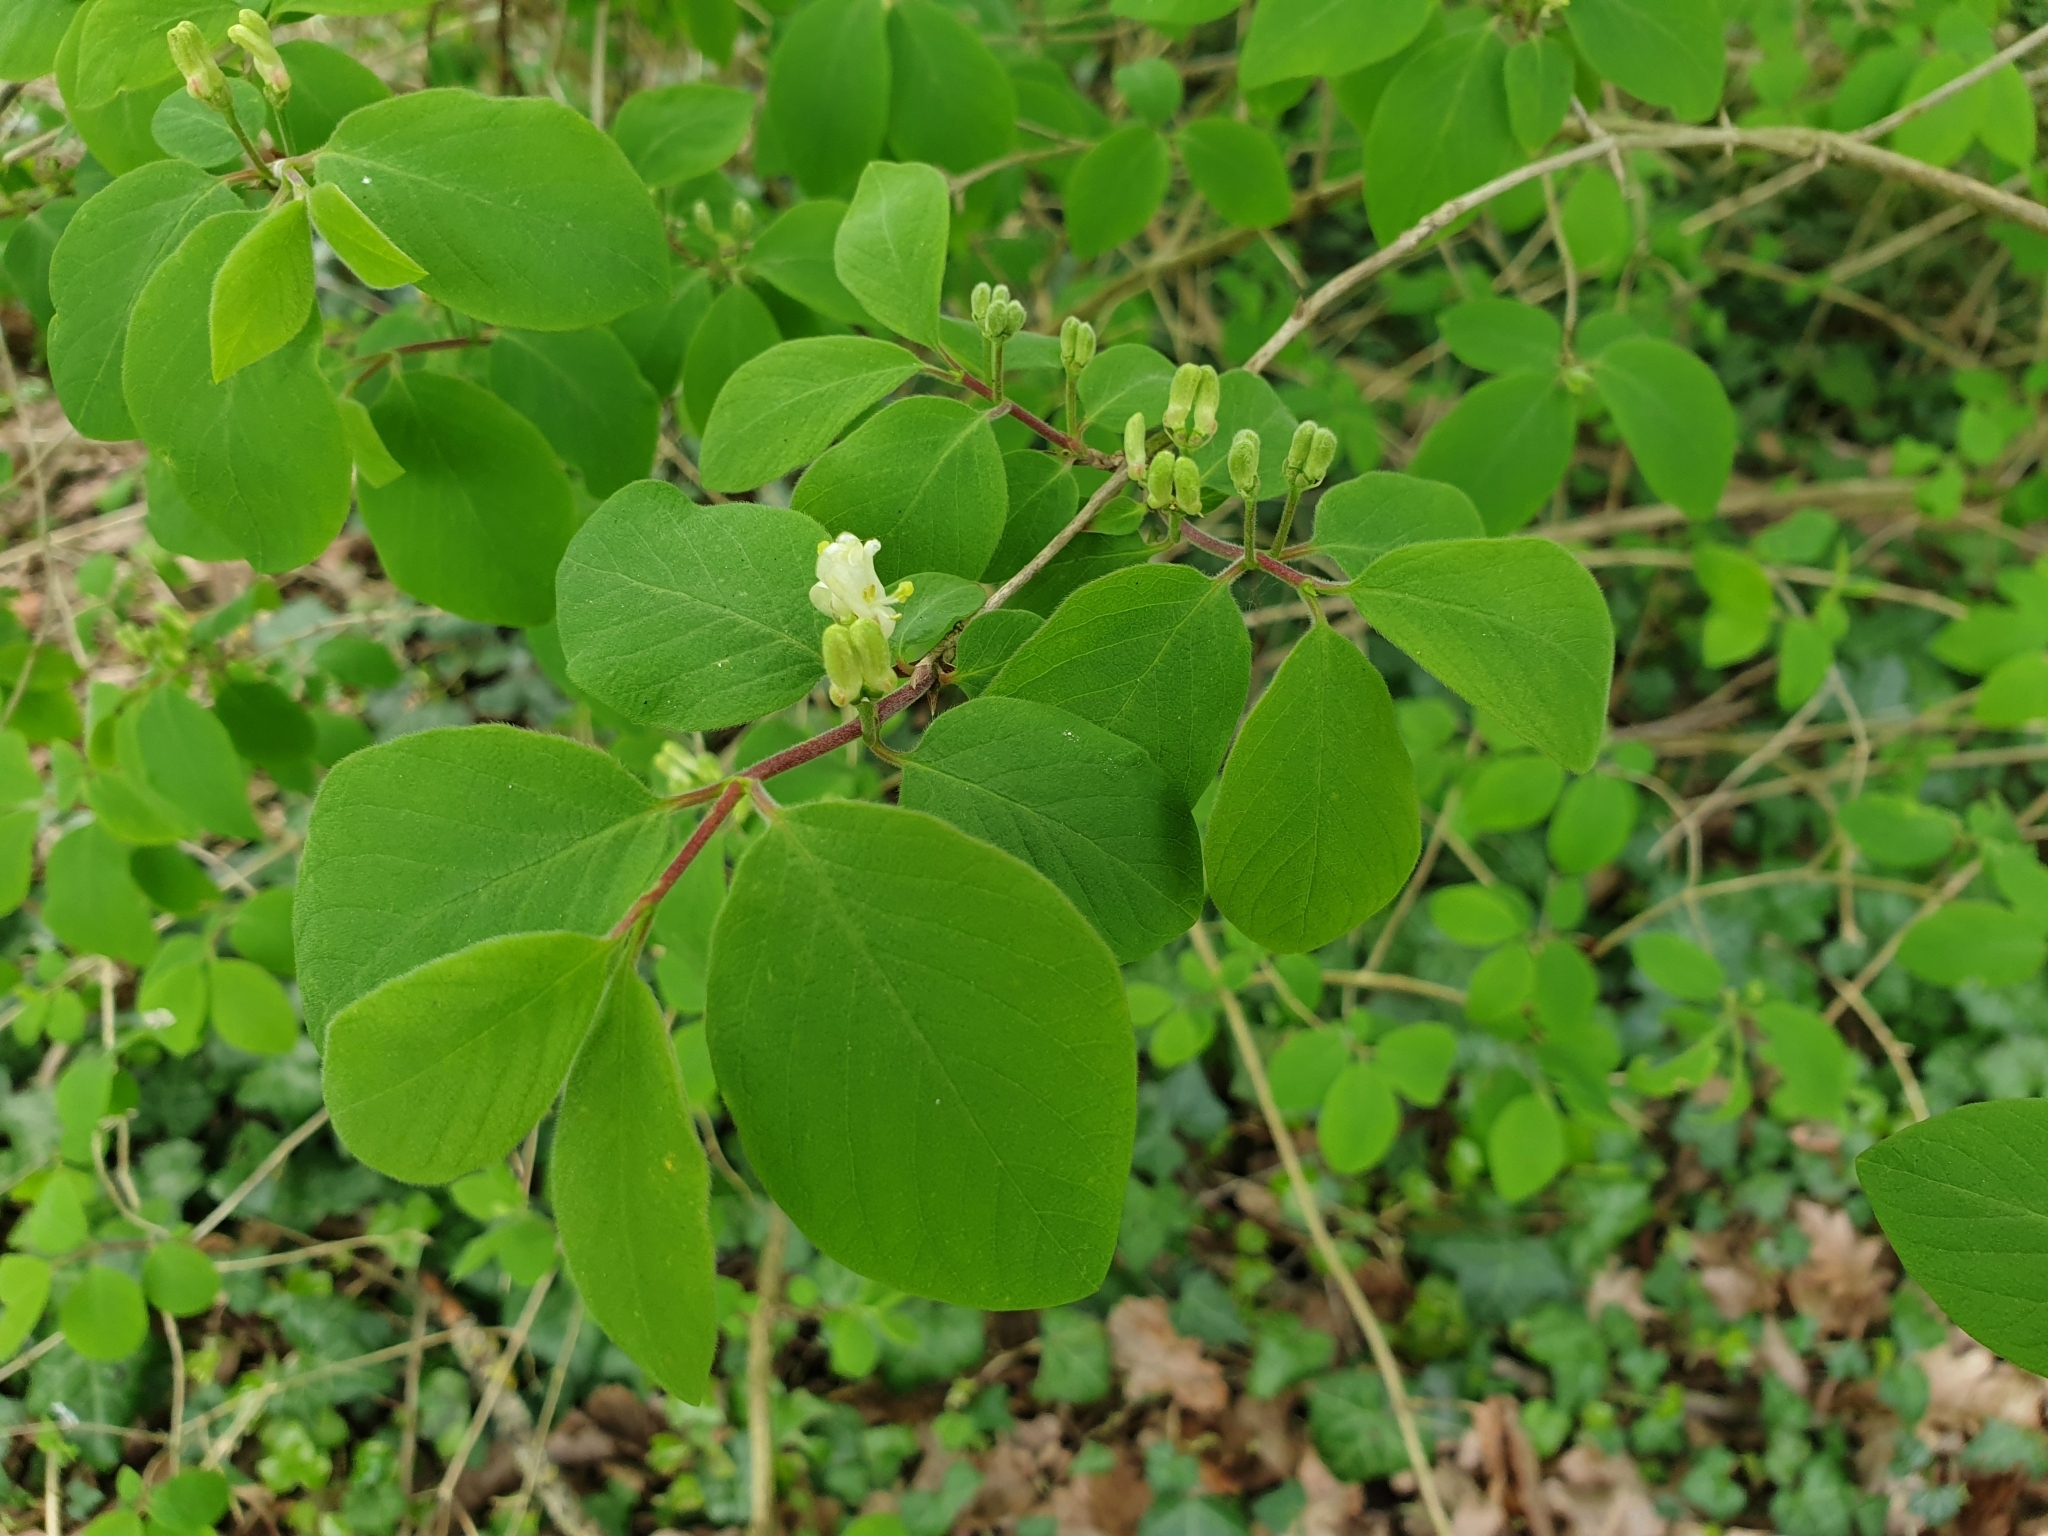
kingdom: Plantae
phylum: Tracheophyta
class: Magnoliopsida
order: Dipsacales
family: Caprifoliaceae
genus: Lonicera
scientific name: Lonicera xylosteum
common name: Fly honeysuckle
